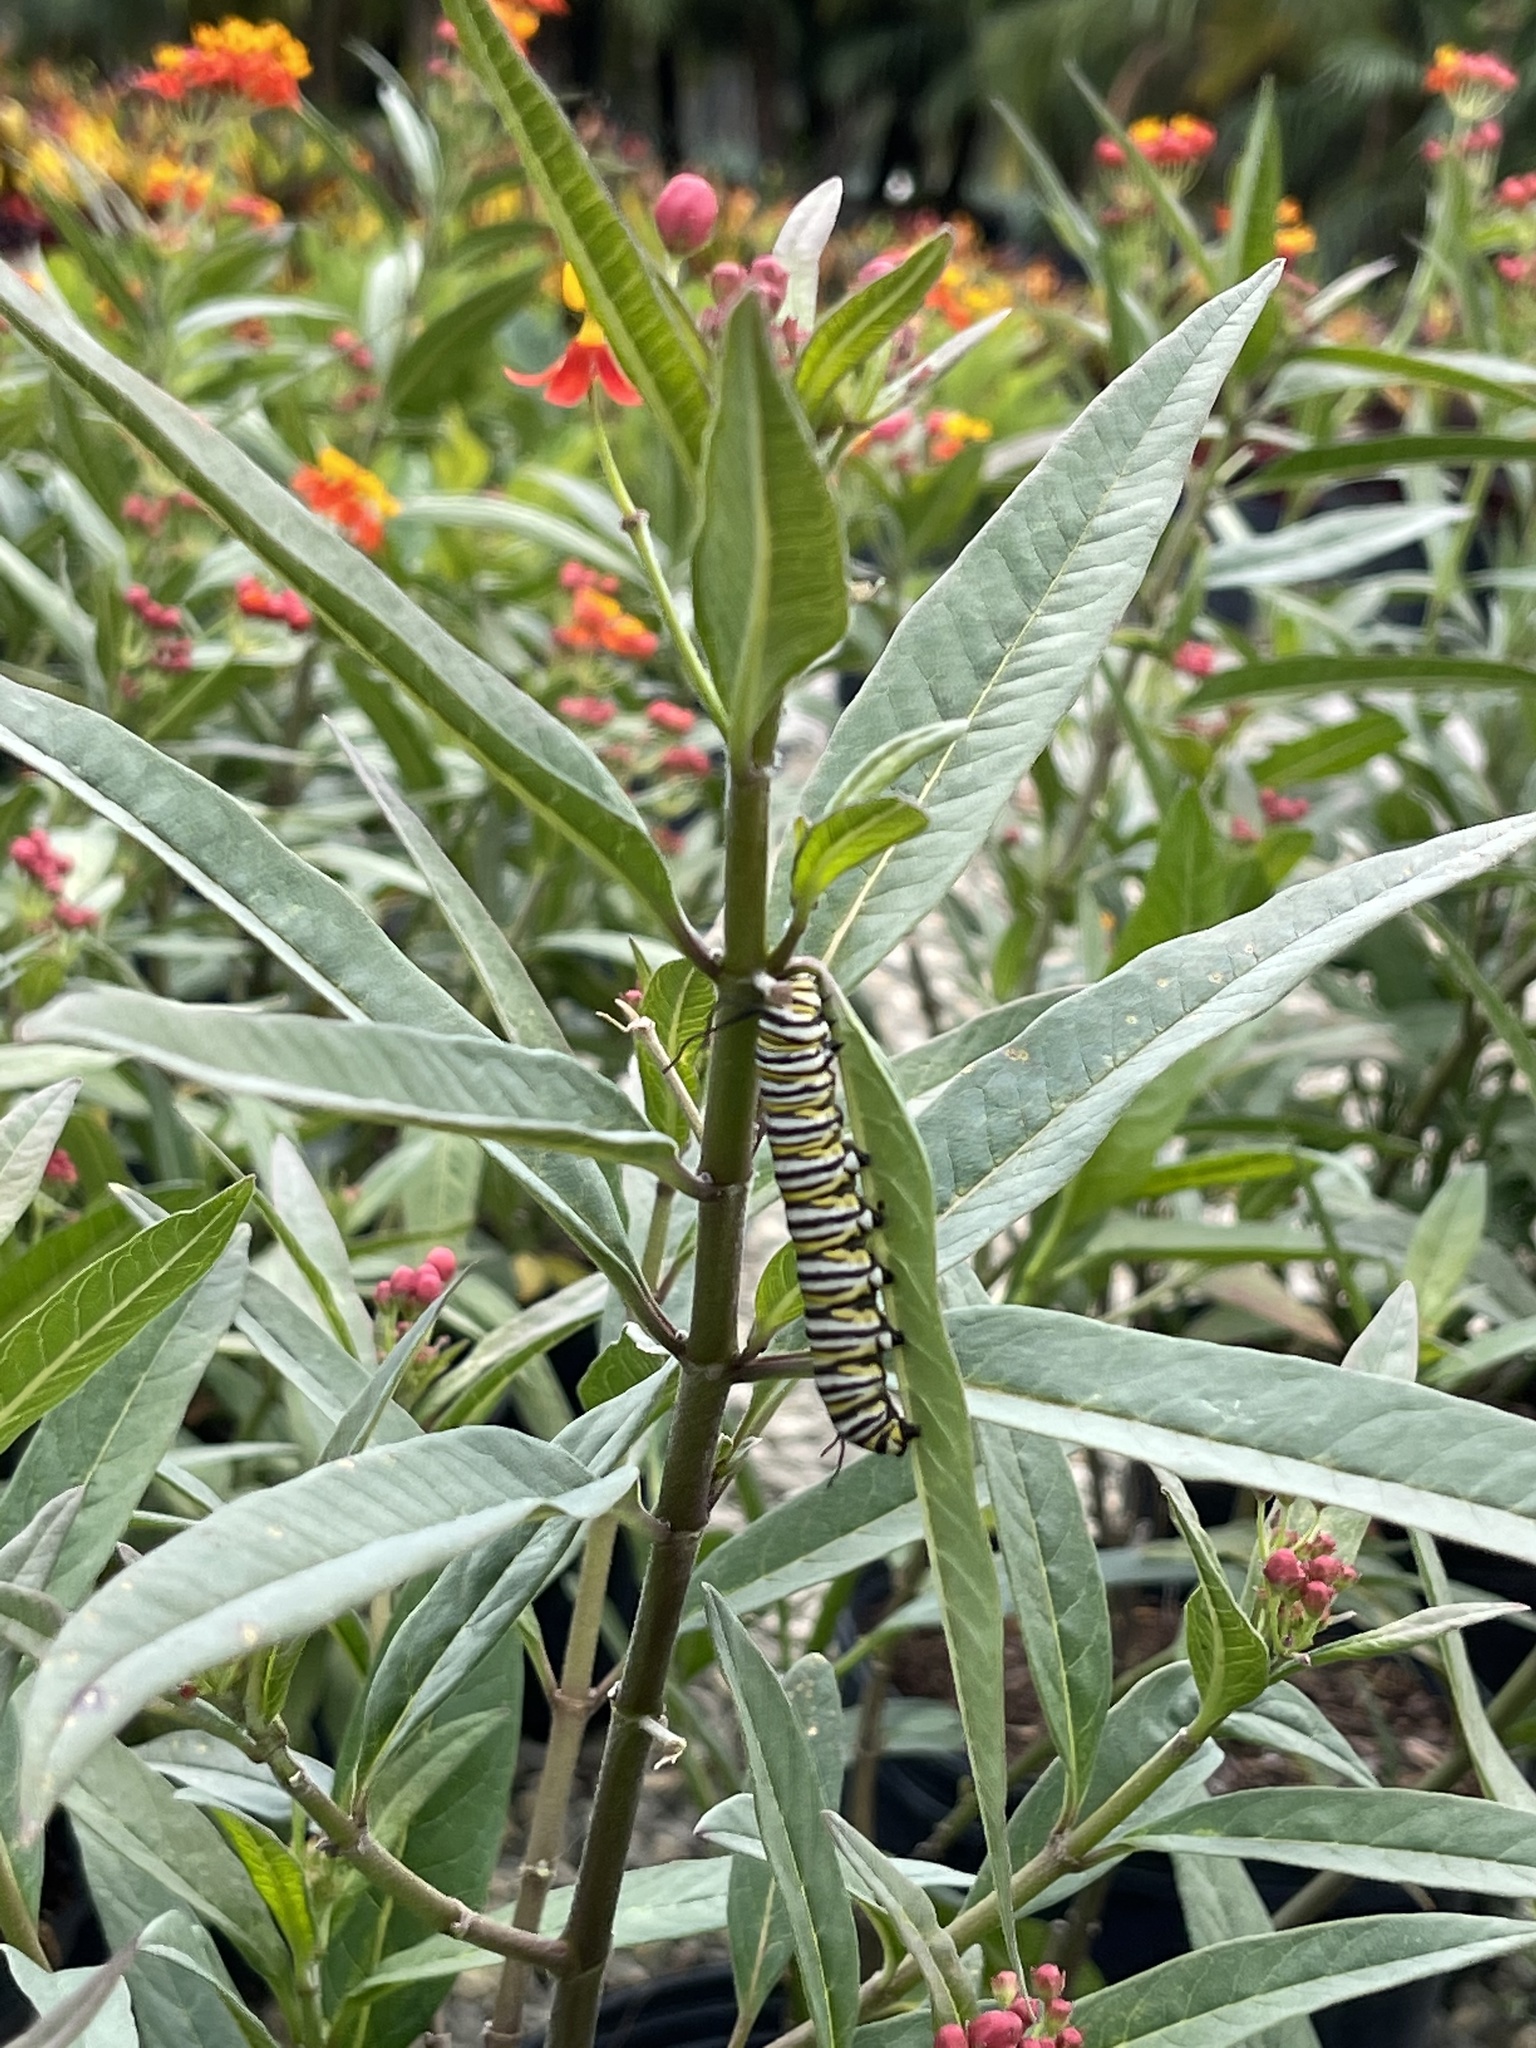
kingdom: Animalia
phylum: Arthropoda
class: Insecta
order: Lepidoptera
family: Nymphalidae
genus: Danaus
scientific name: Danaus plexippus
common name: Monarch
